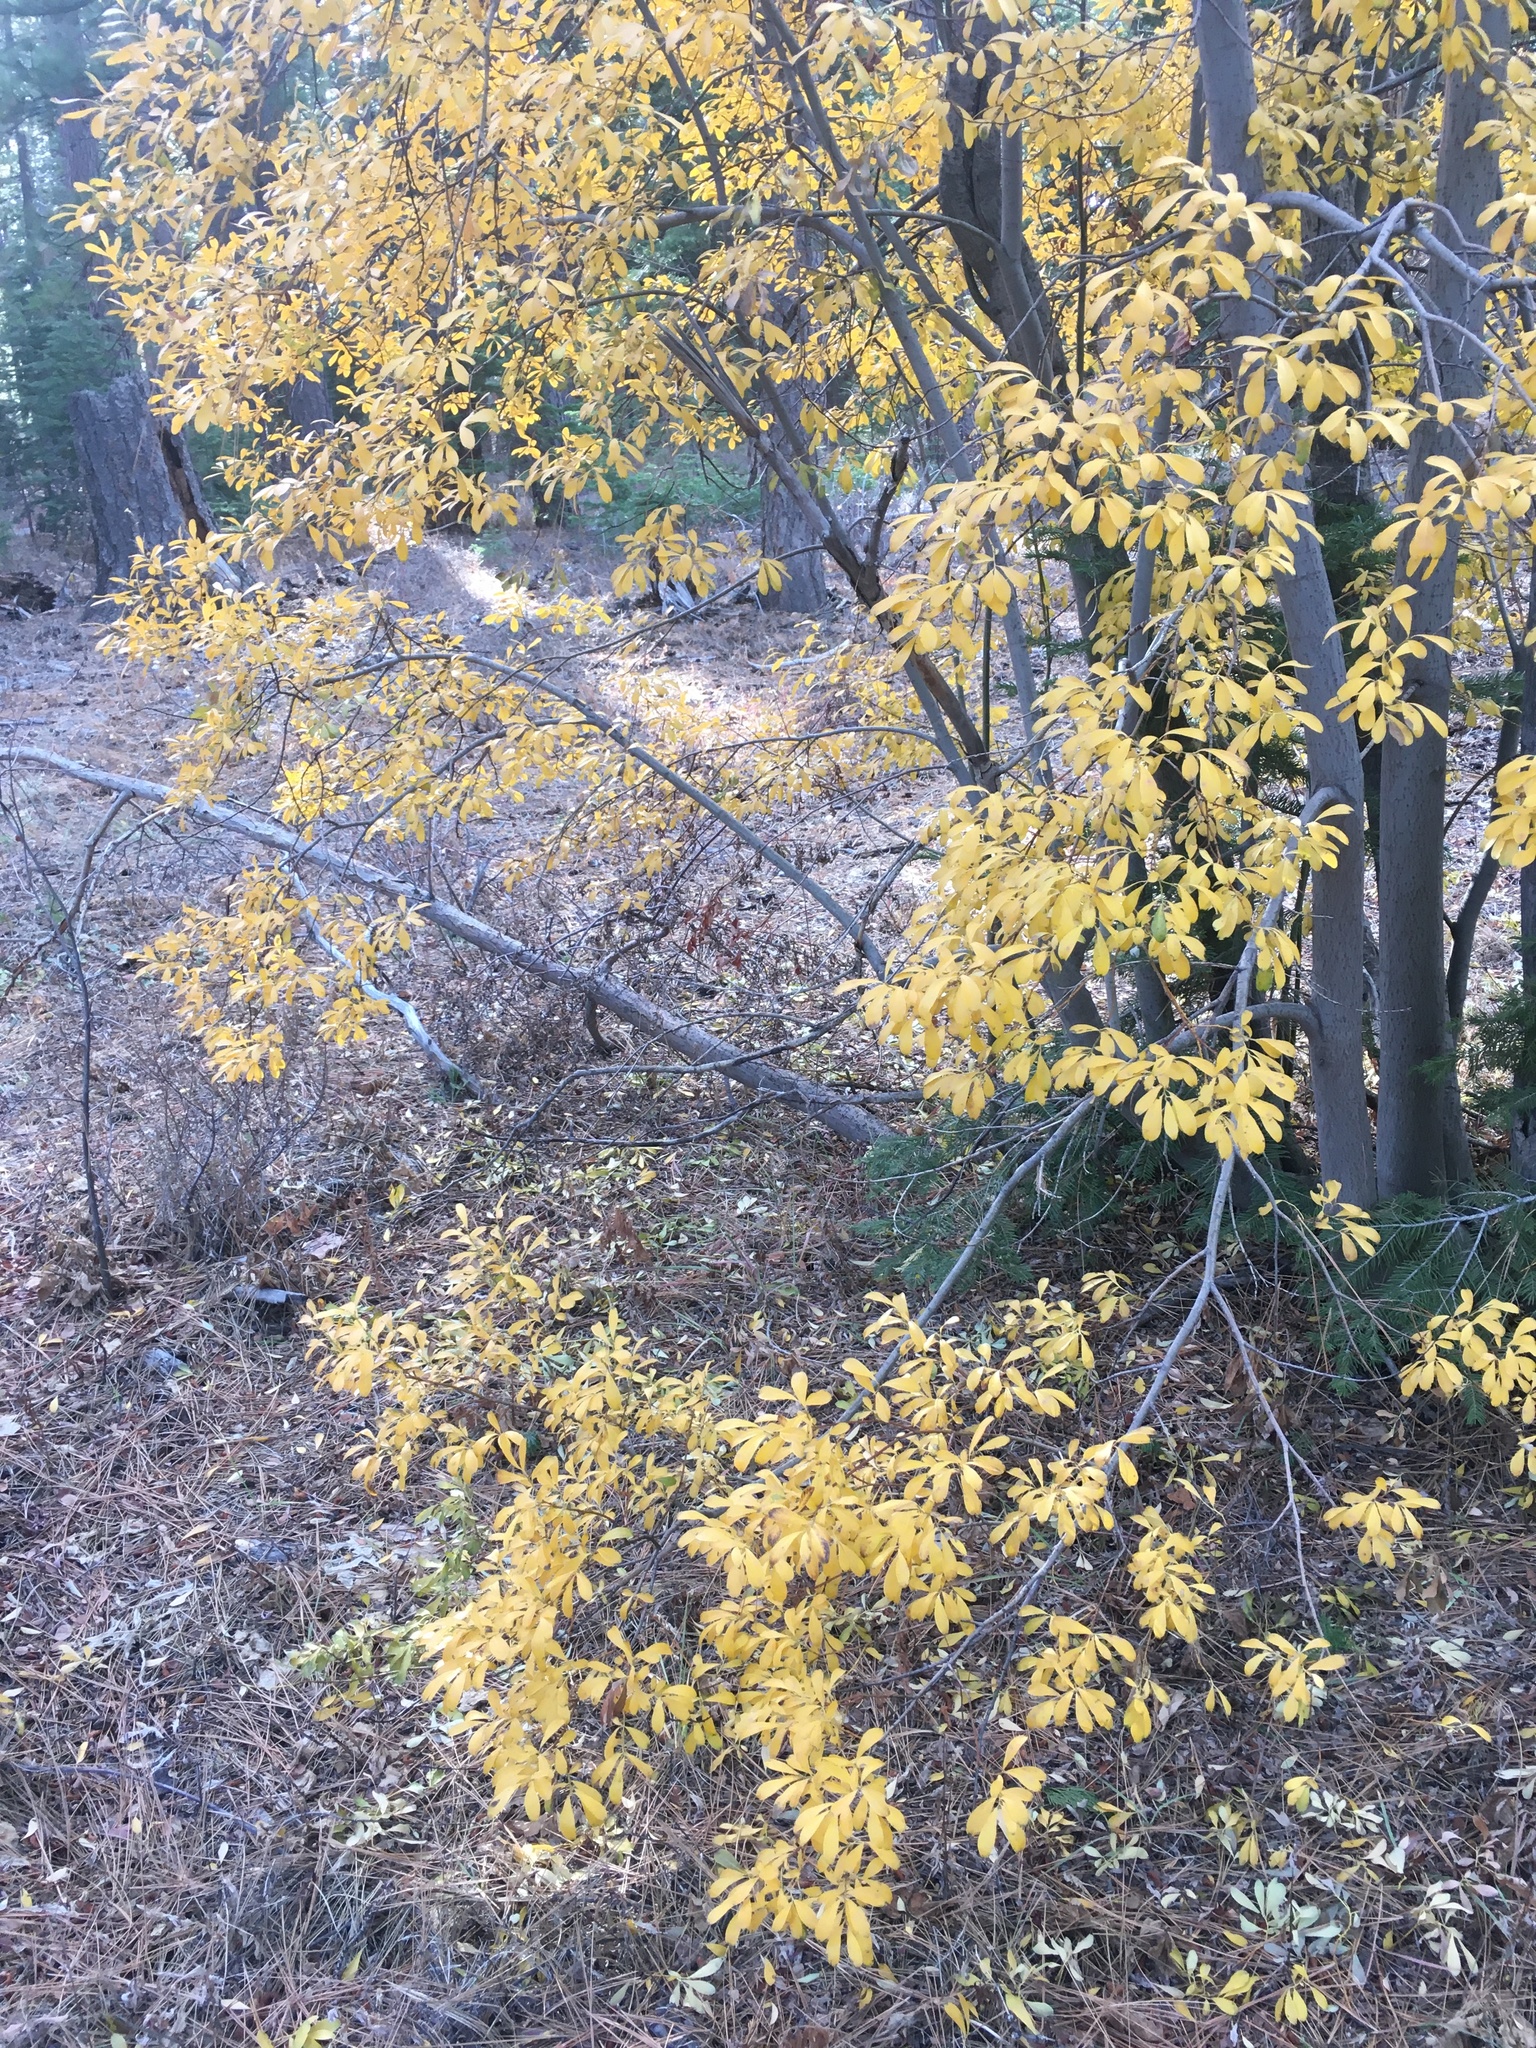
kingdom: Plantae
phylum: Tracheophyta
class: Magnoliopsida
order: Malpighiales
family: Salicaceae
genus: Salix
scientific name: Salix scouleriana
